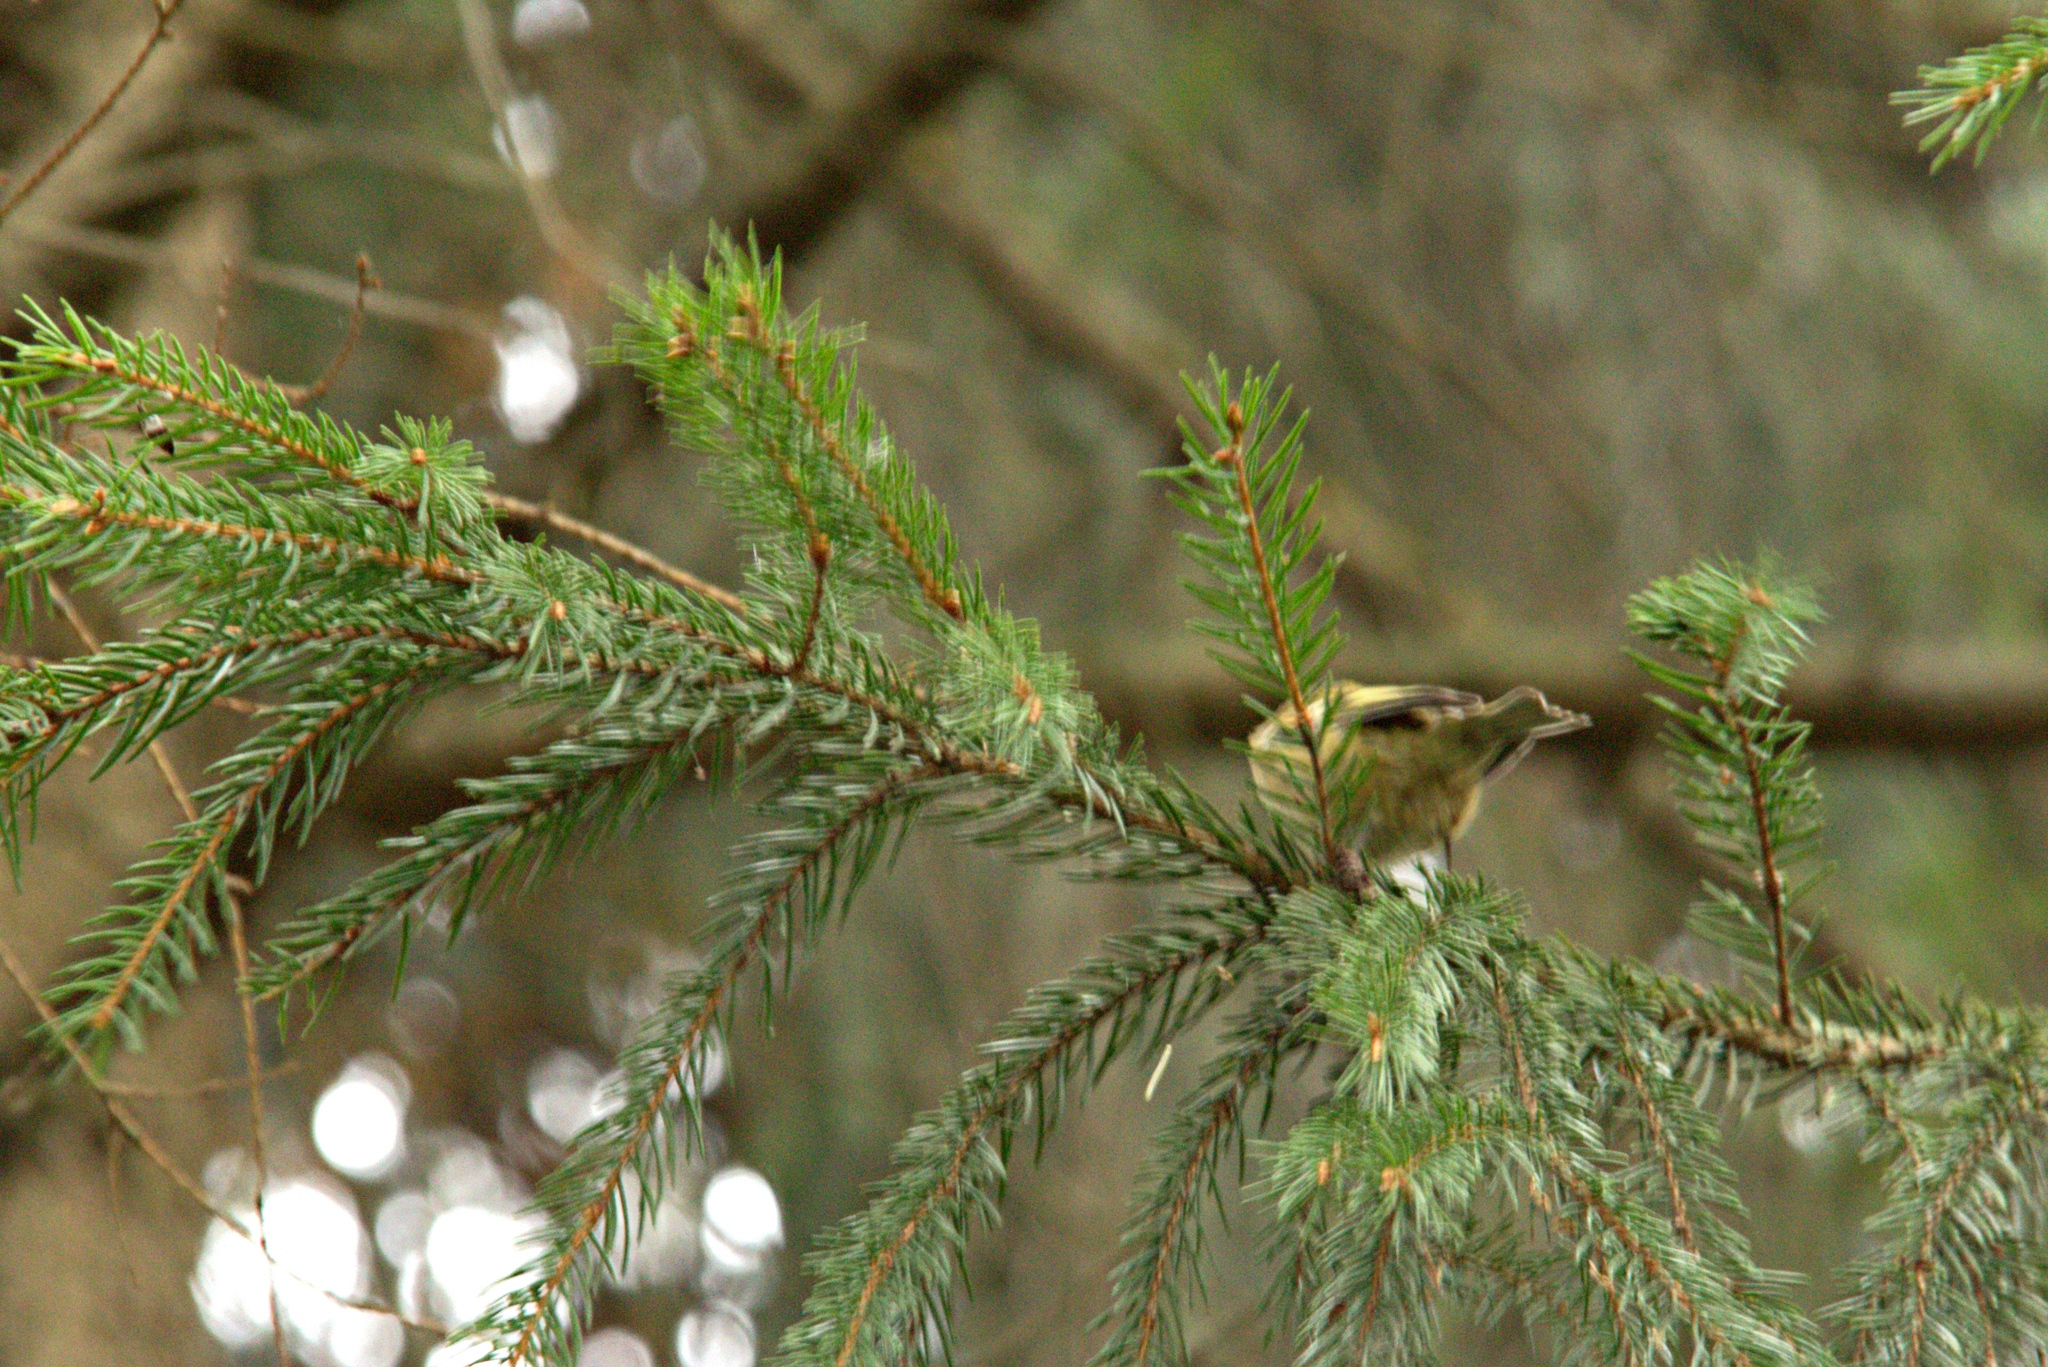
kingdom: Animalia
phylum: Chordata
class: Aves
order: Passeriformes
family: Fringillidae
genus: Spinus
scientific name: Spinus spinus
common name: Eurasian siskin
